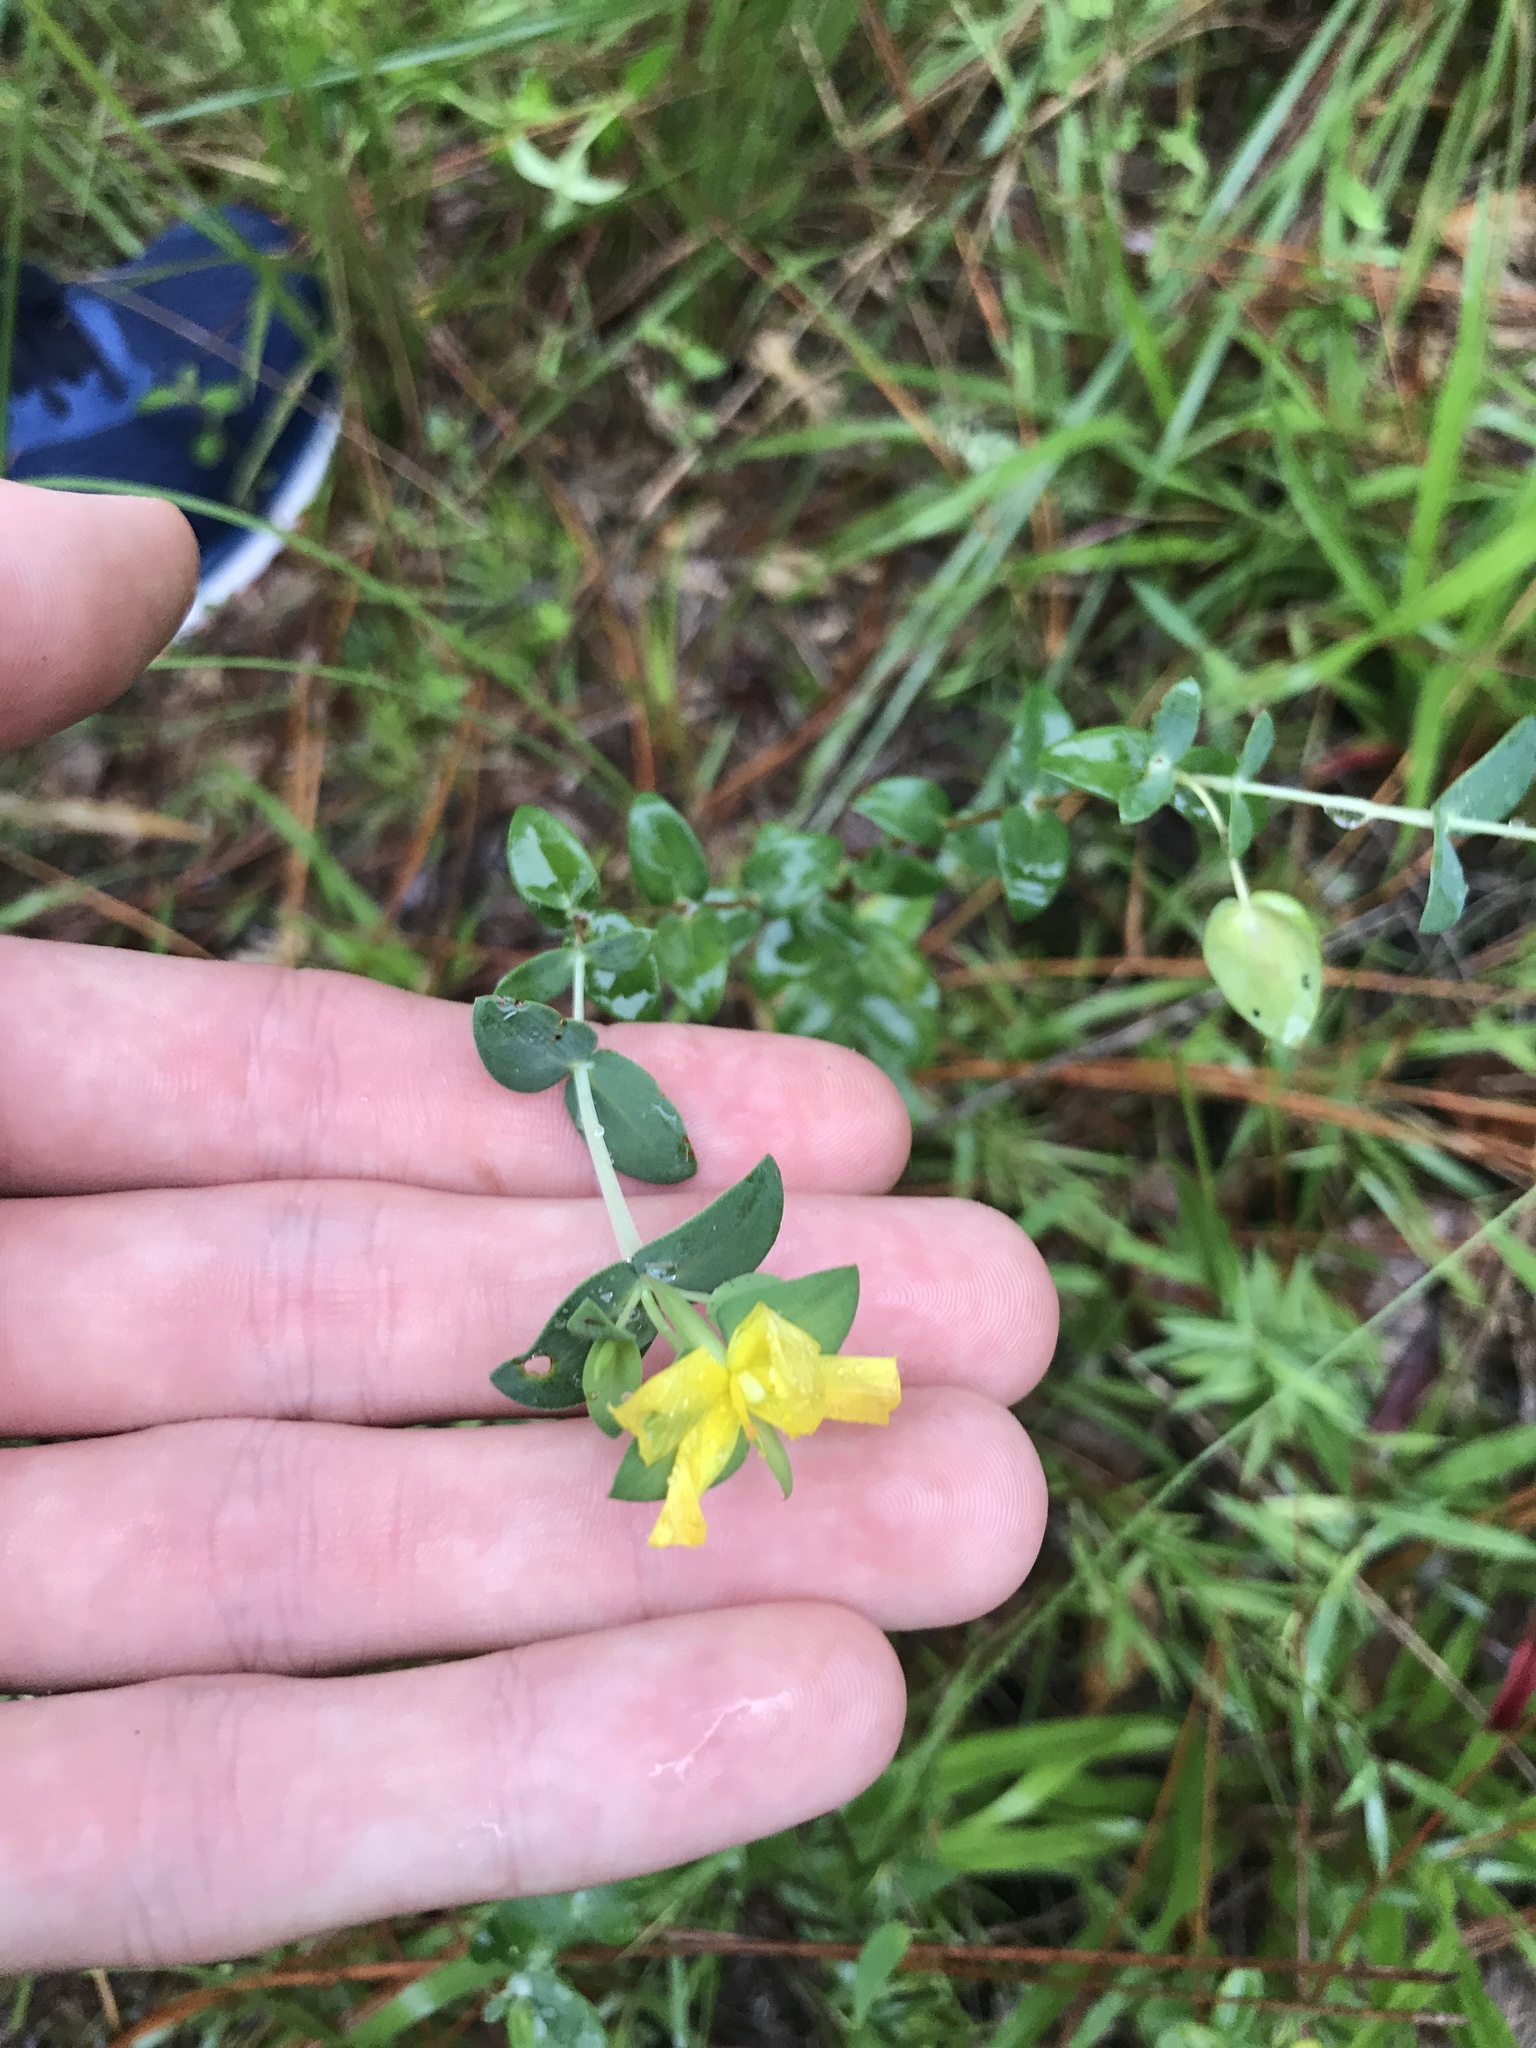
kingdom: Plantae
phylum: Tracheophyta
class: Magnoliopsida
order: Malpighiales
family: Hypericaceae
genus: Hypericum
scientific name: Hypericum tetrapetalum
